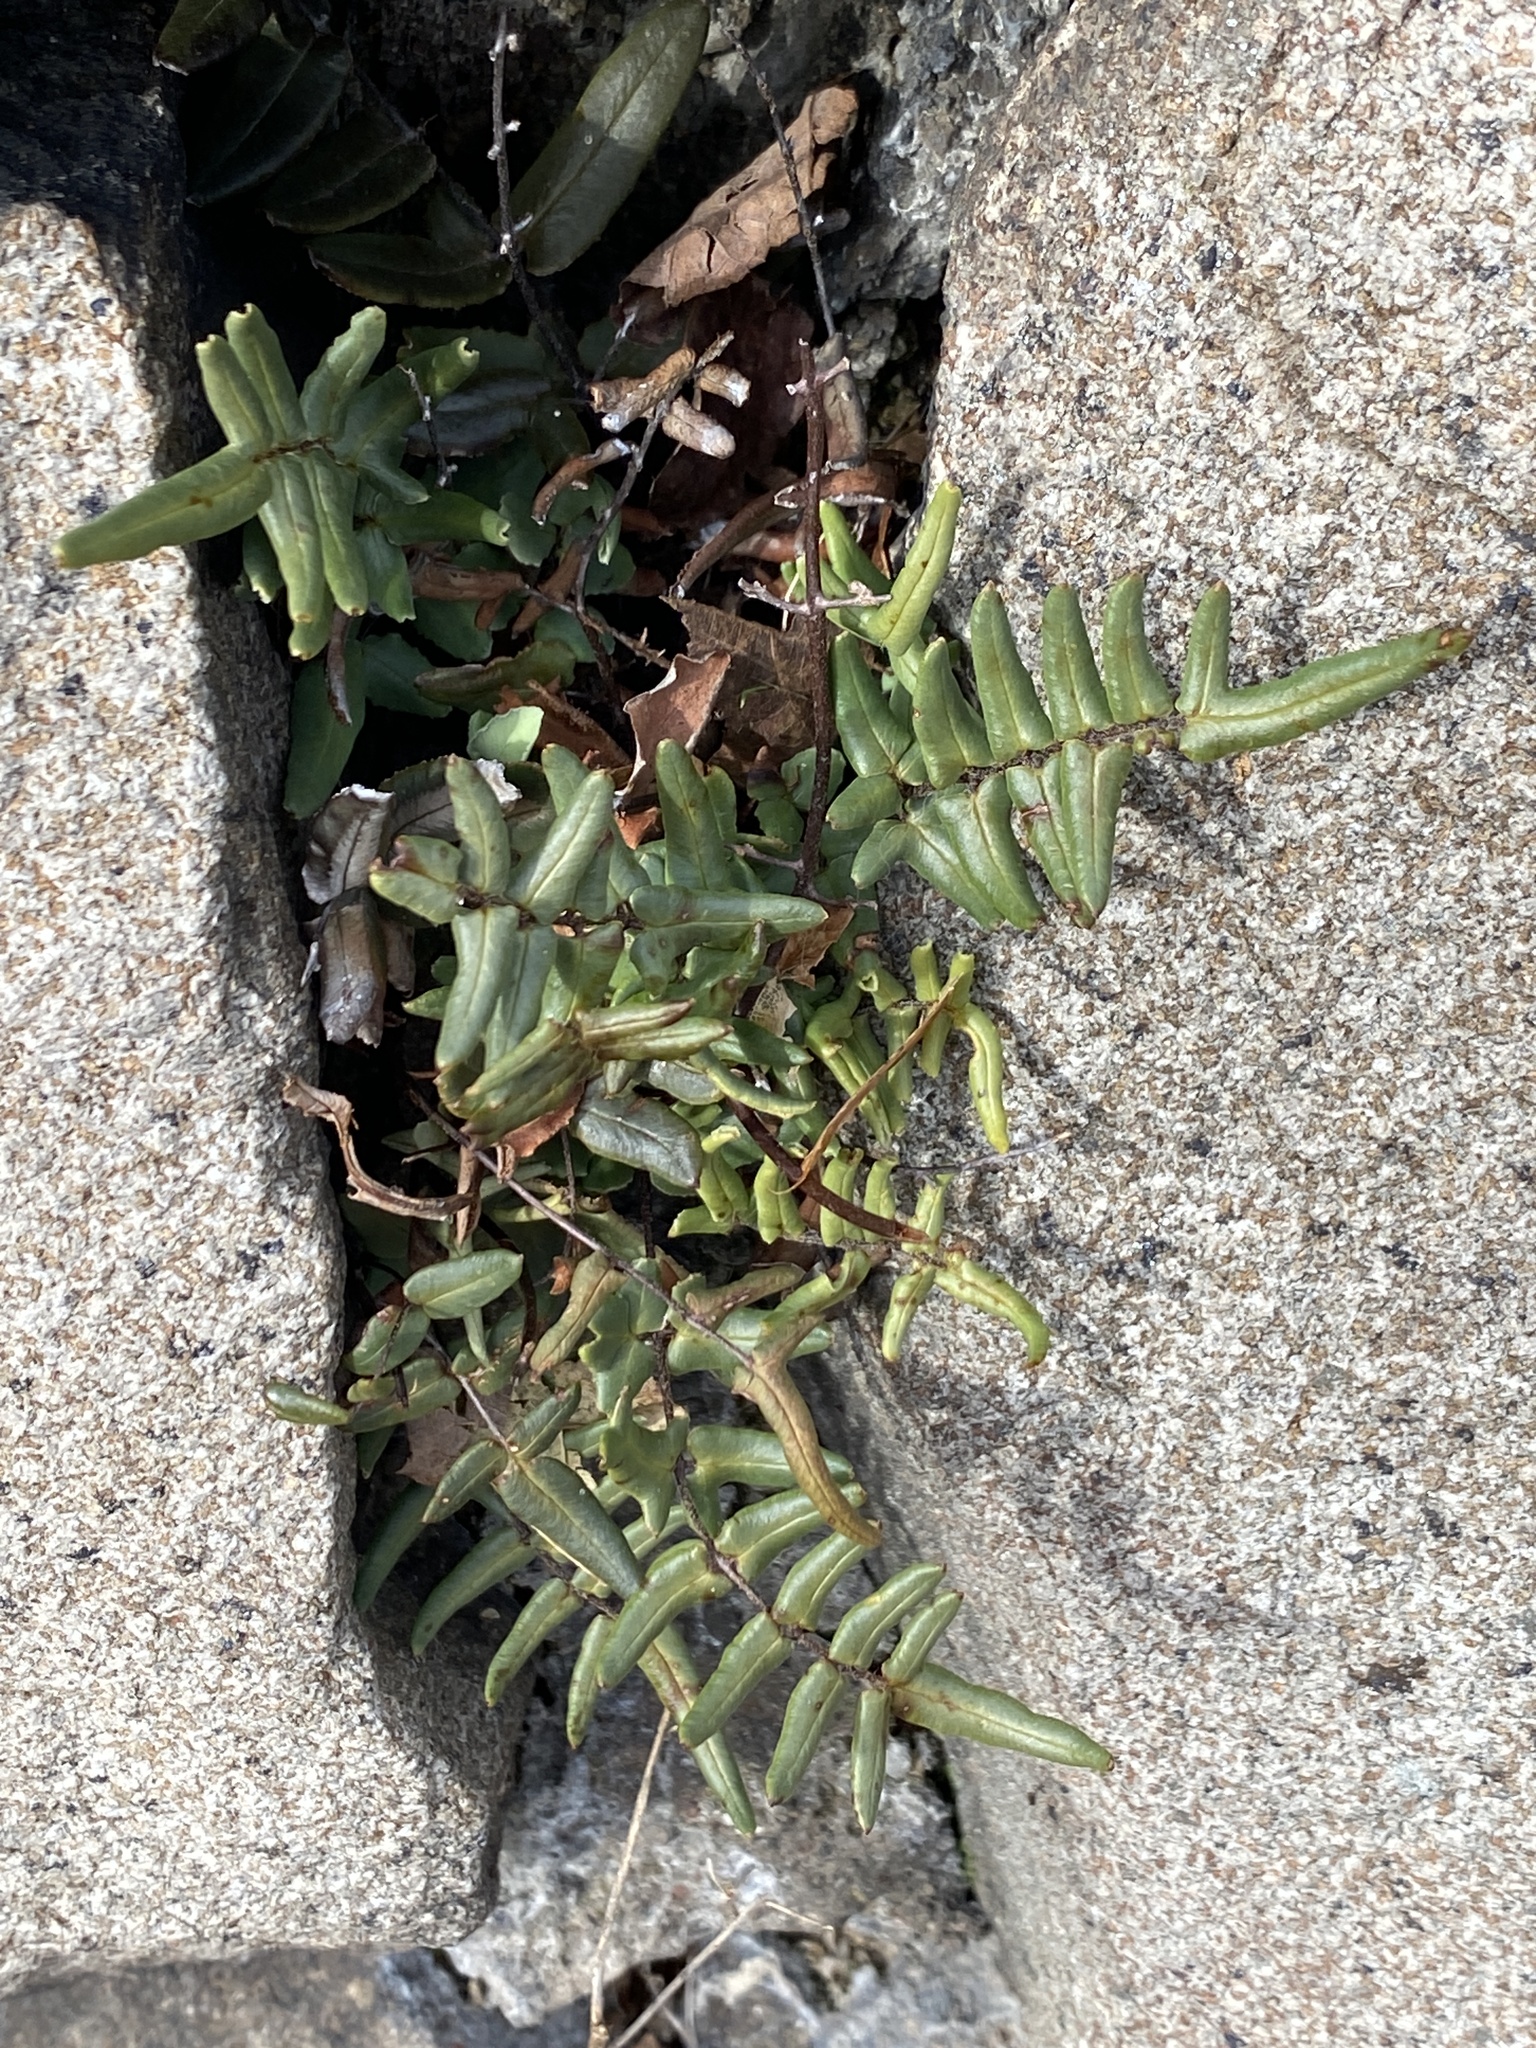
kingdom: Plantae
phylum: Tracheophyta
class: Polypodiopsida
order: Polypodiales
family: Pteridaceae
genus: Pellaea
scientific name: Pellaea atropurpurea
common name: Hairy cliffbrake
